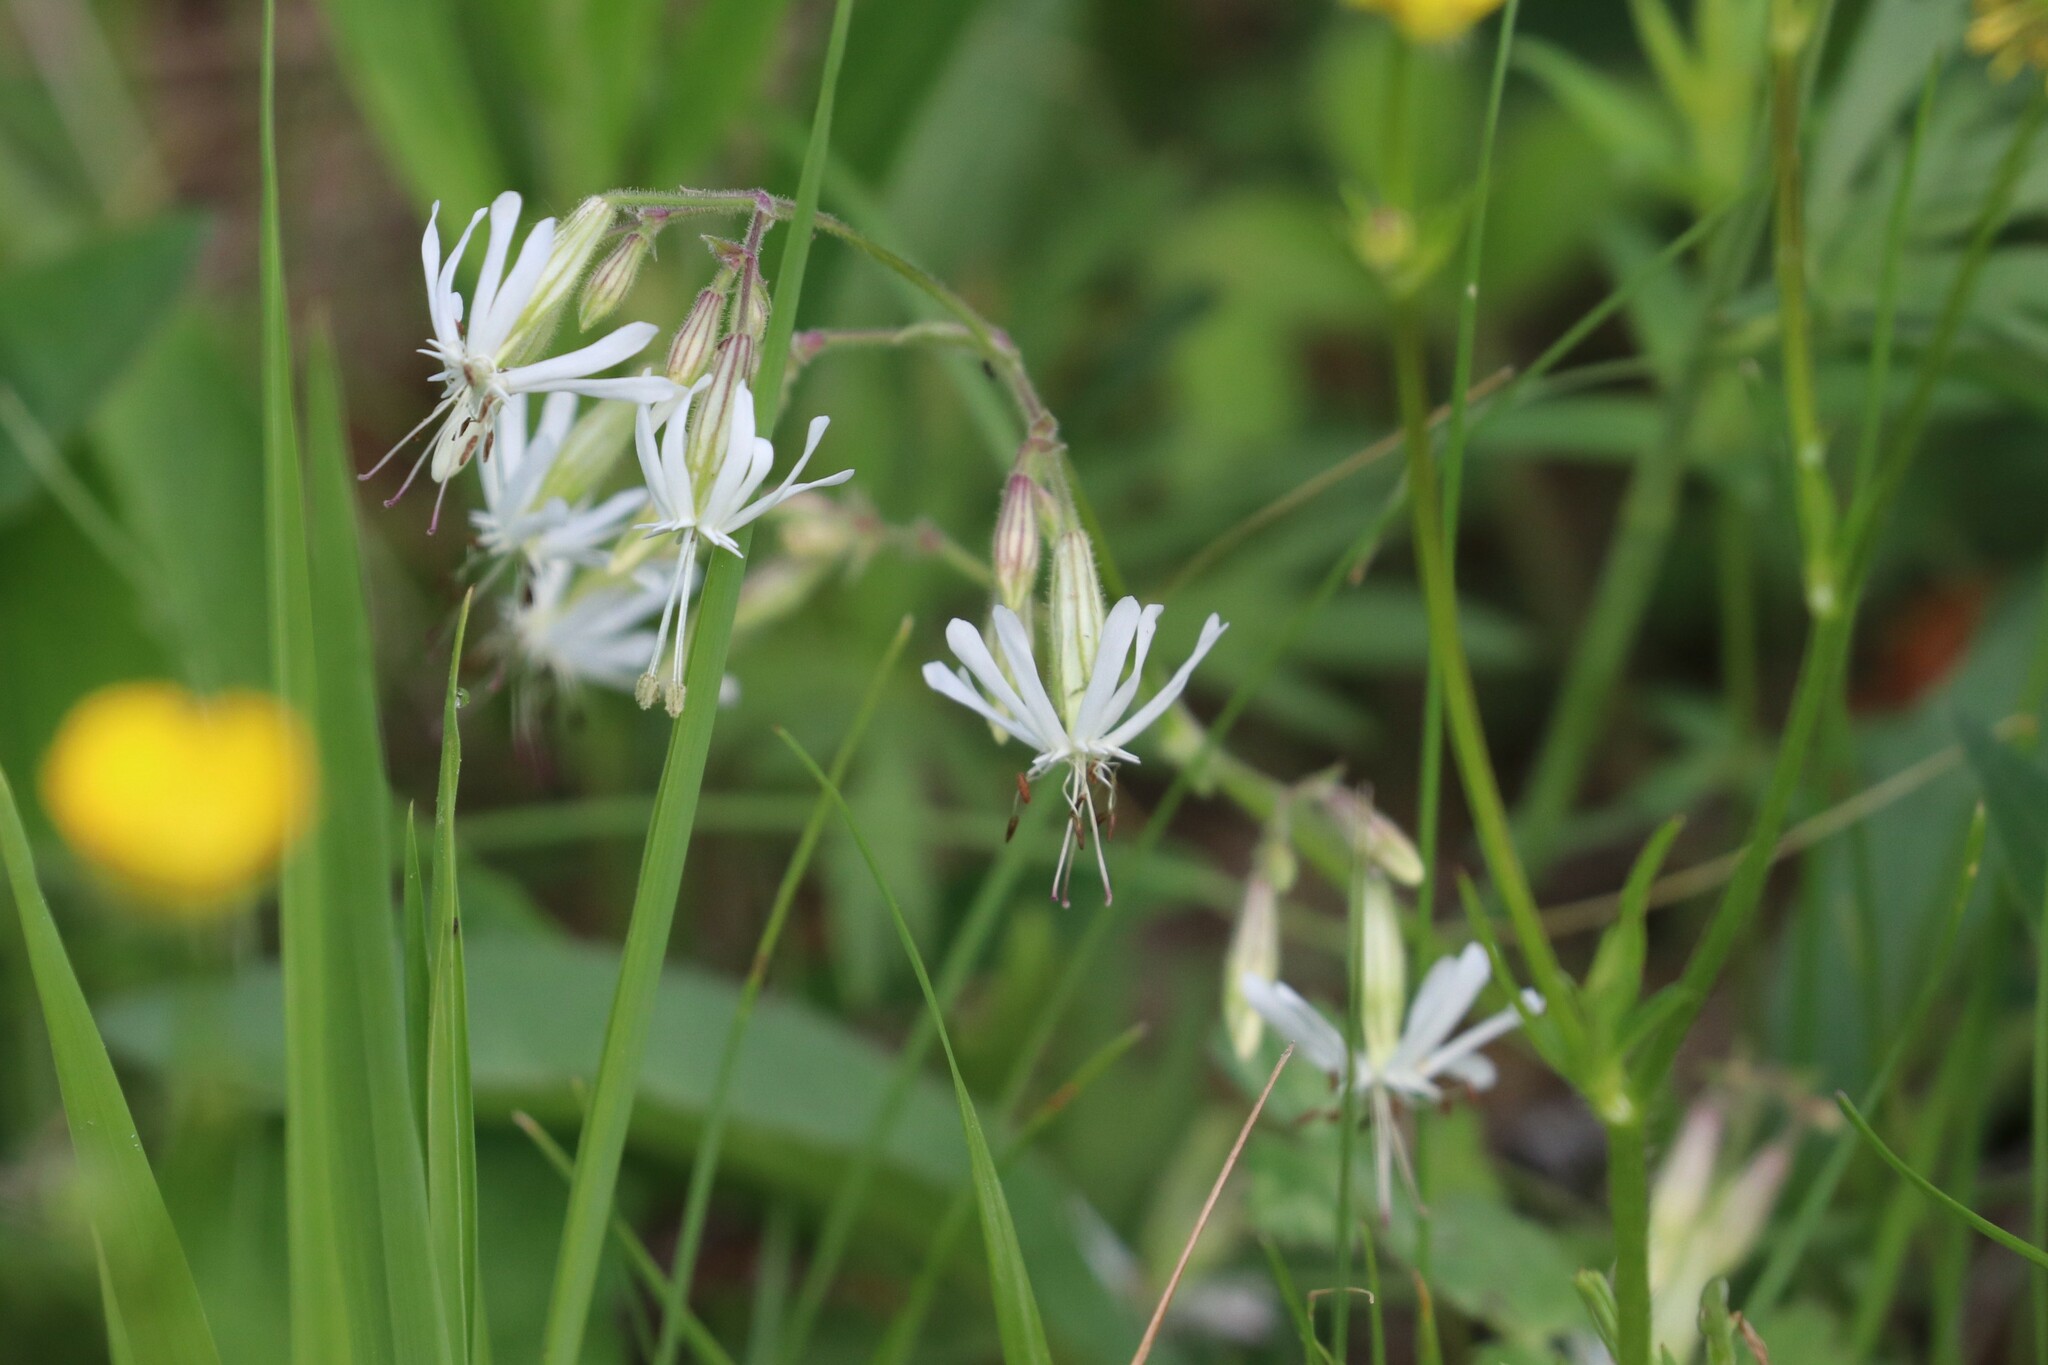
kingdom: Plantae
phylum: Tracheophyta
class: Magnoliopsida
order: Caryophyllales
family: Caryophyllaceae
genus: Silene
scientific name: Silene nutans
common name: Nottingham catchfly
